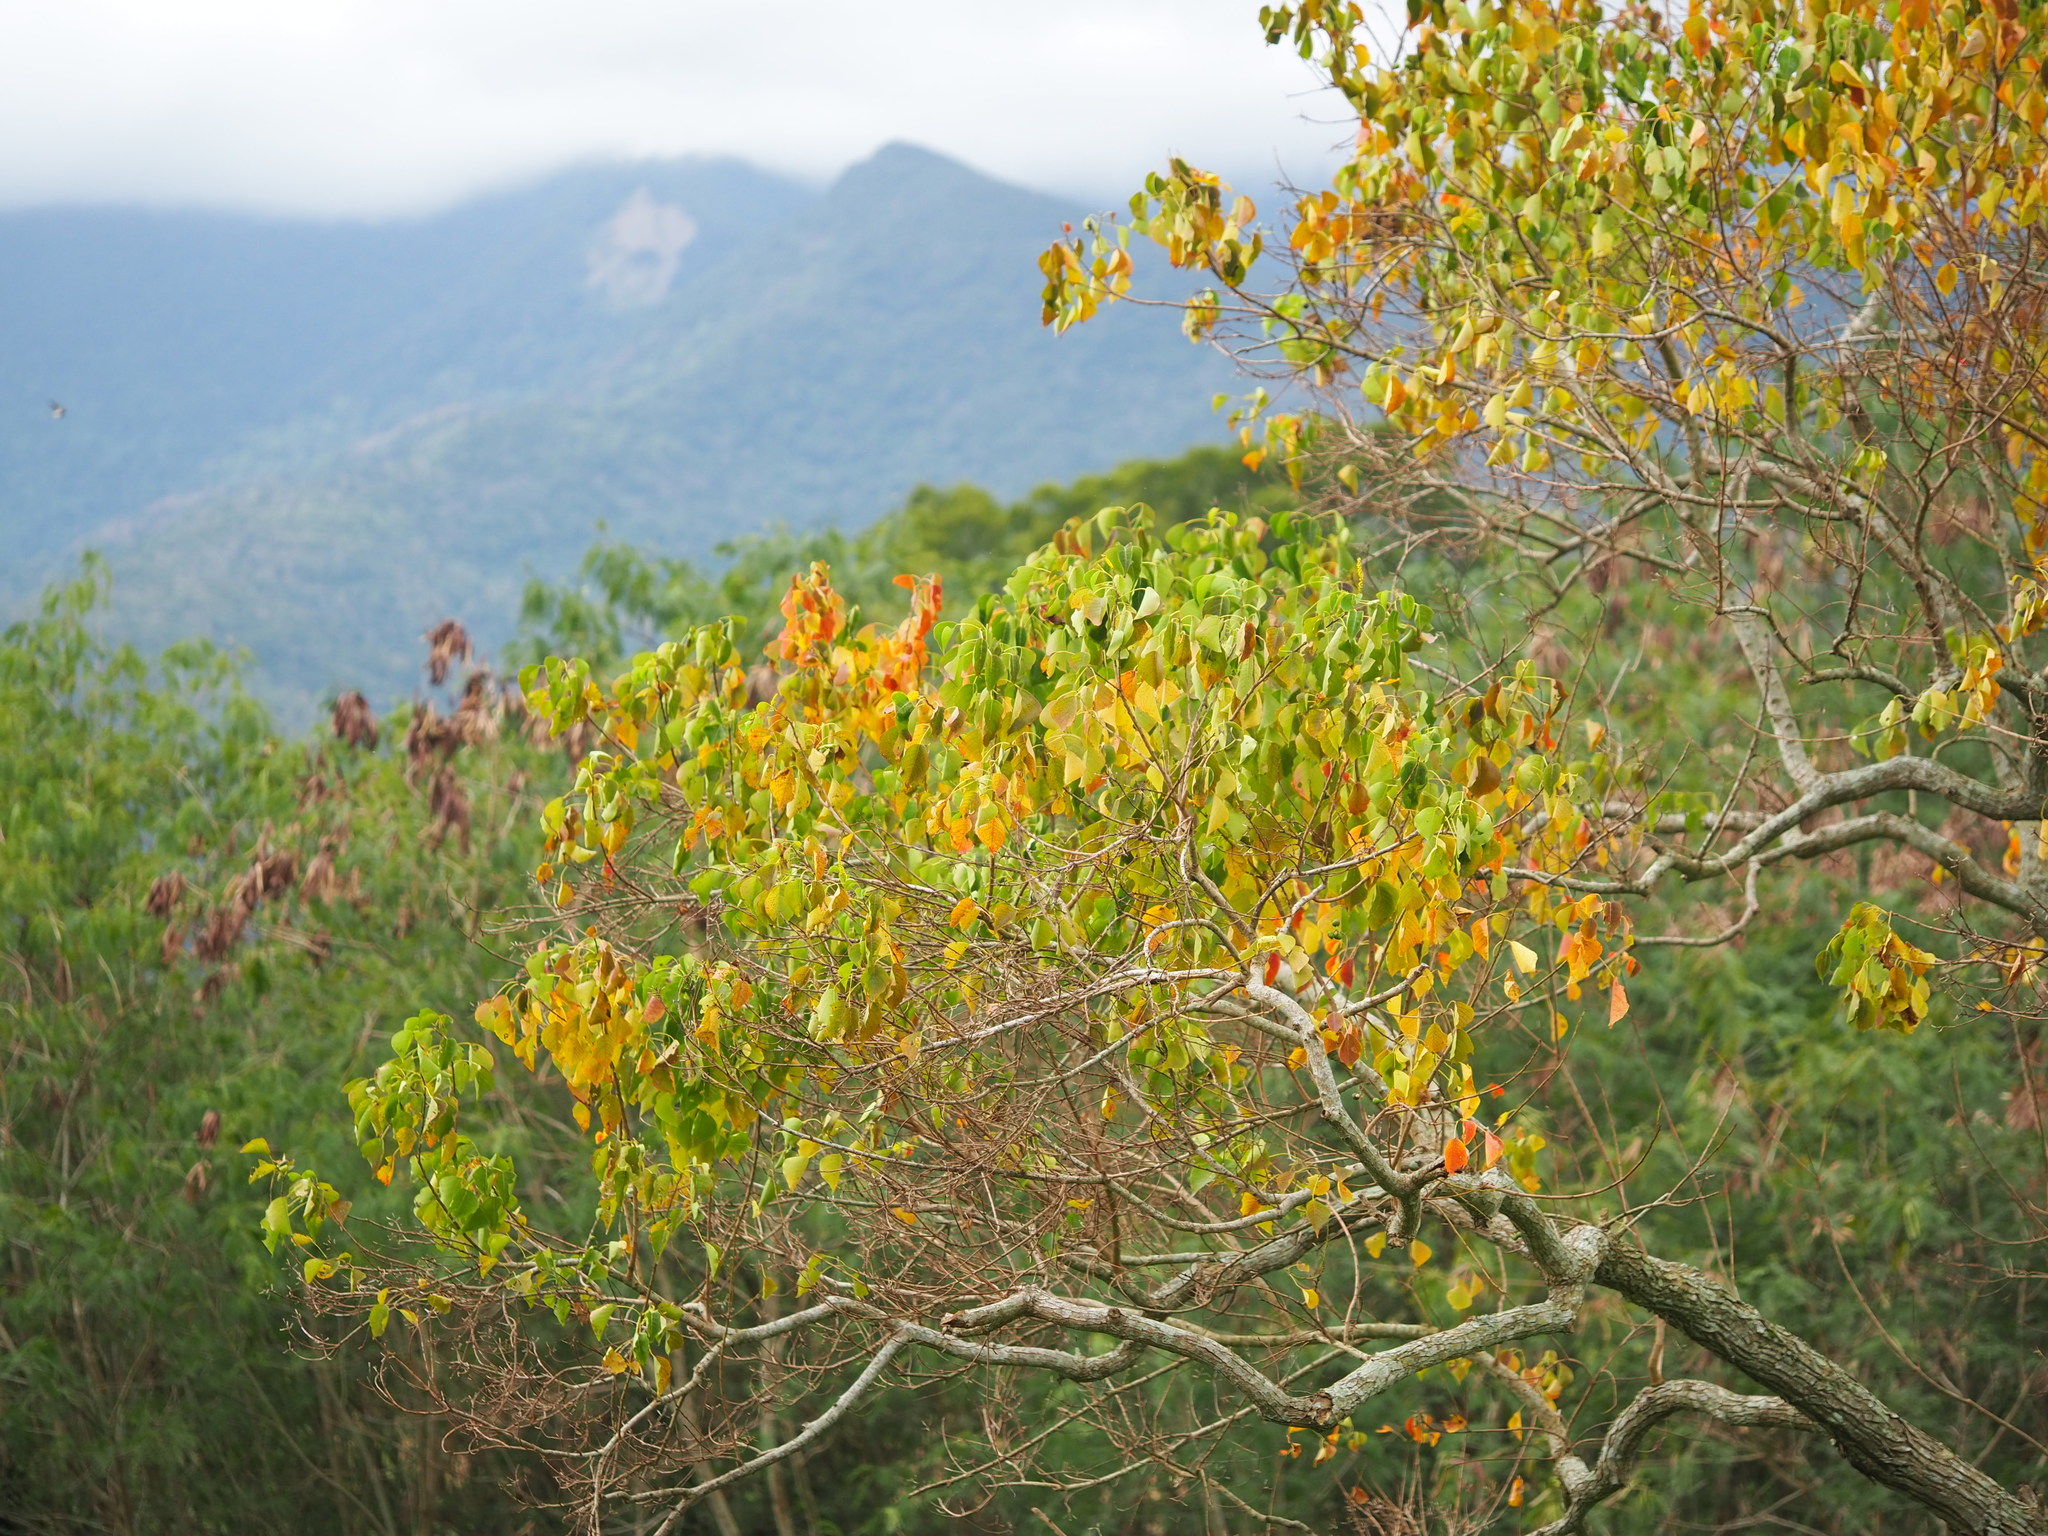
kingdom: Plantae
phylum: Tracheophyta
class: Magnoliopsida
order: Malpighiales
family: Euphorbiaceae
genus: Triadica
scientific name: Triadica sebifera
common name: Chinese tallow
